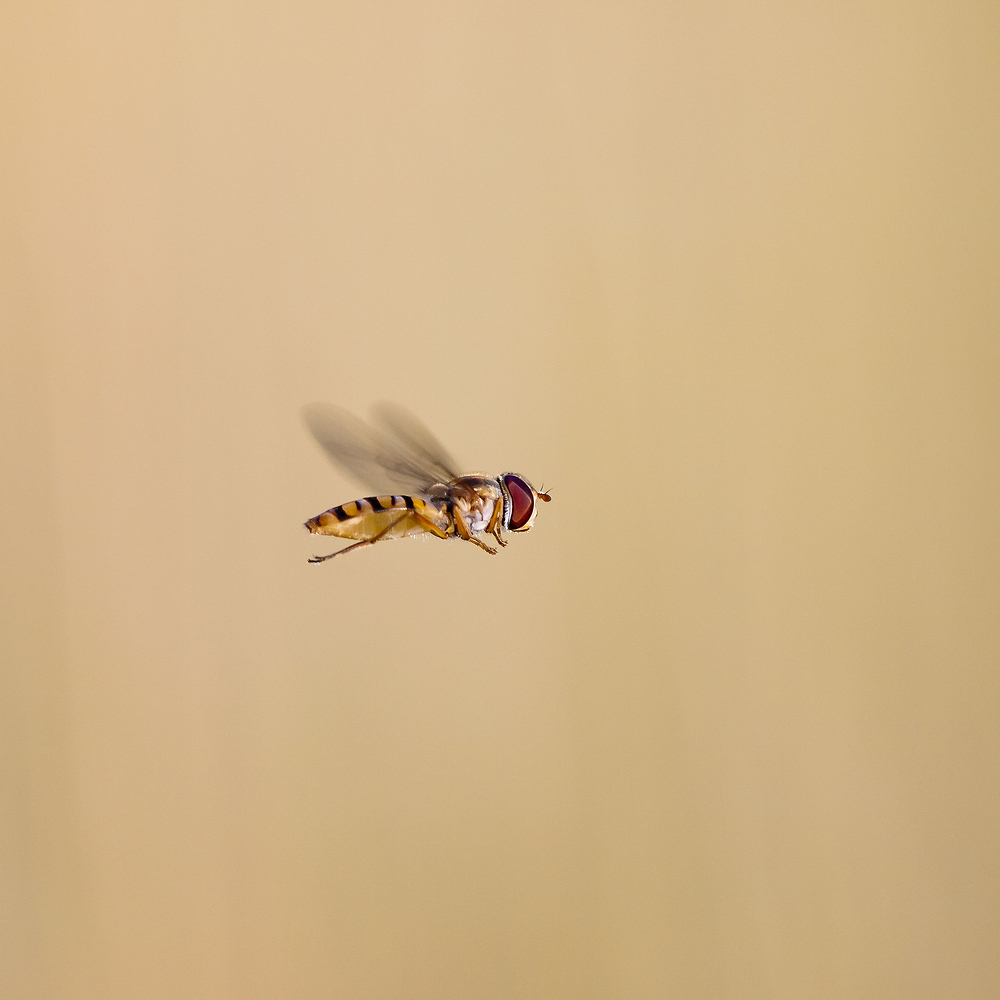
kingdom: Animalia
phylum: Arthropoda
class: Insecta
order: Diptera
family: Syrphidae
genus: Episyrphus
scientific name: Episyrphus balteatus
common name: Marmalade hoverfly
